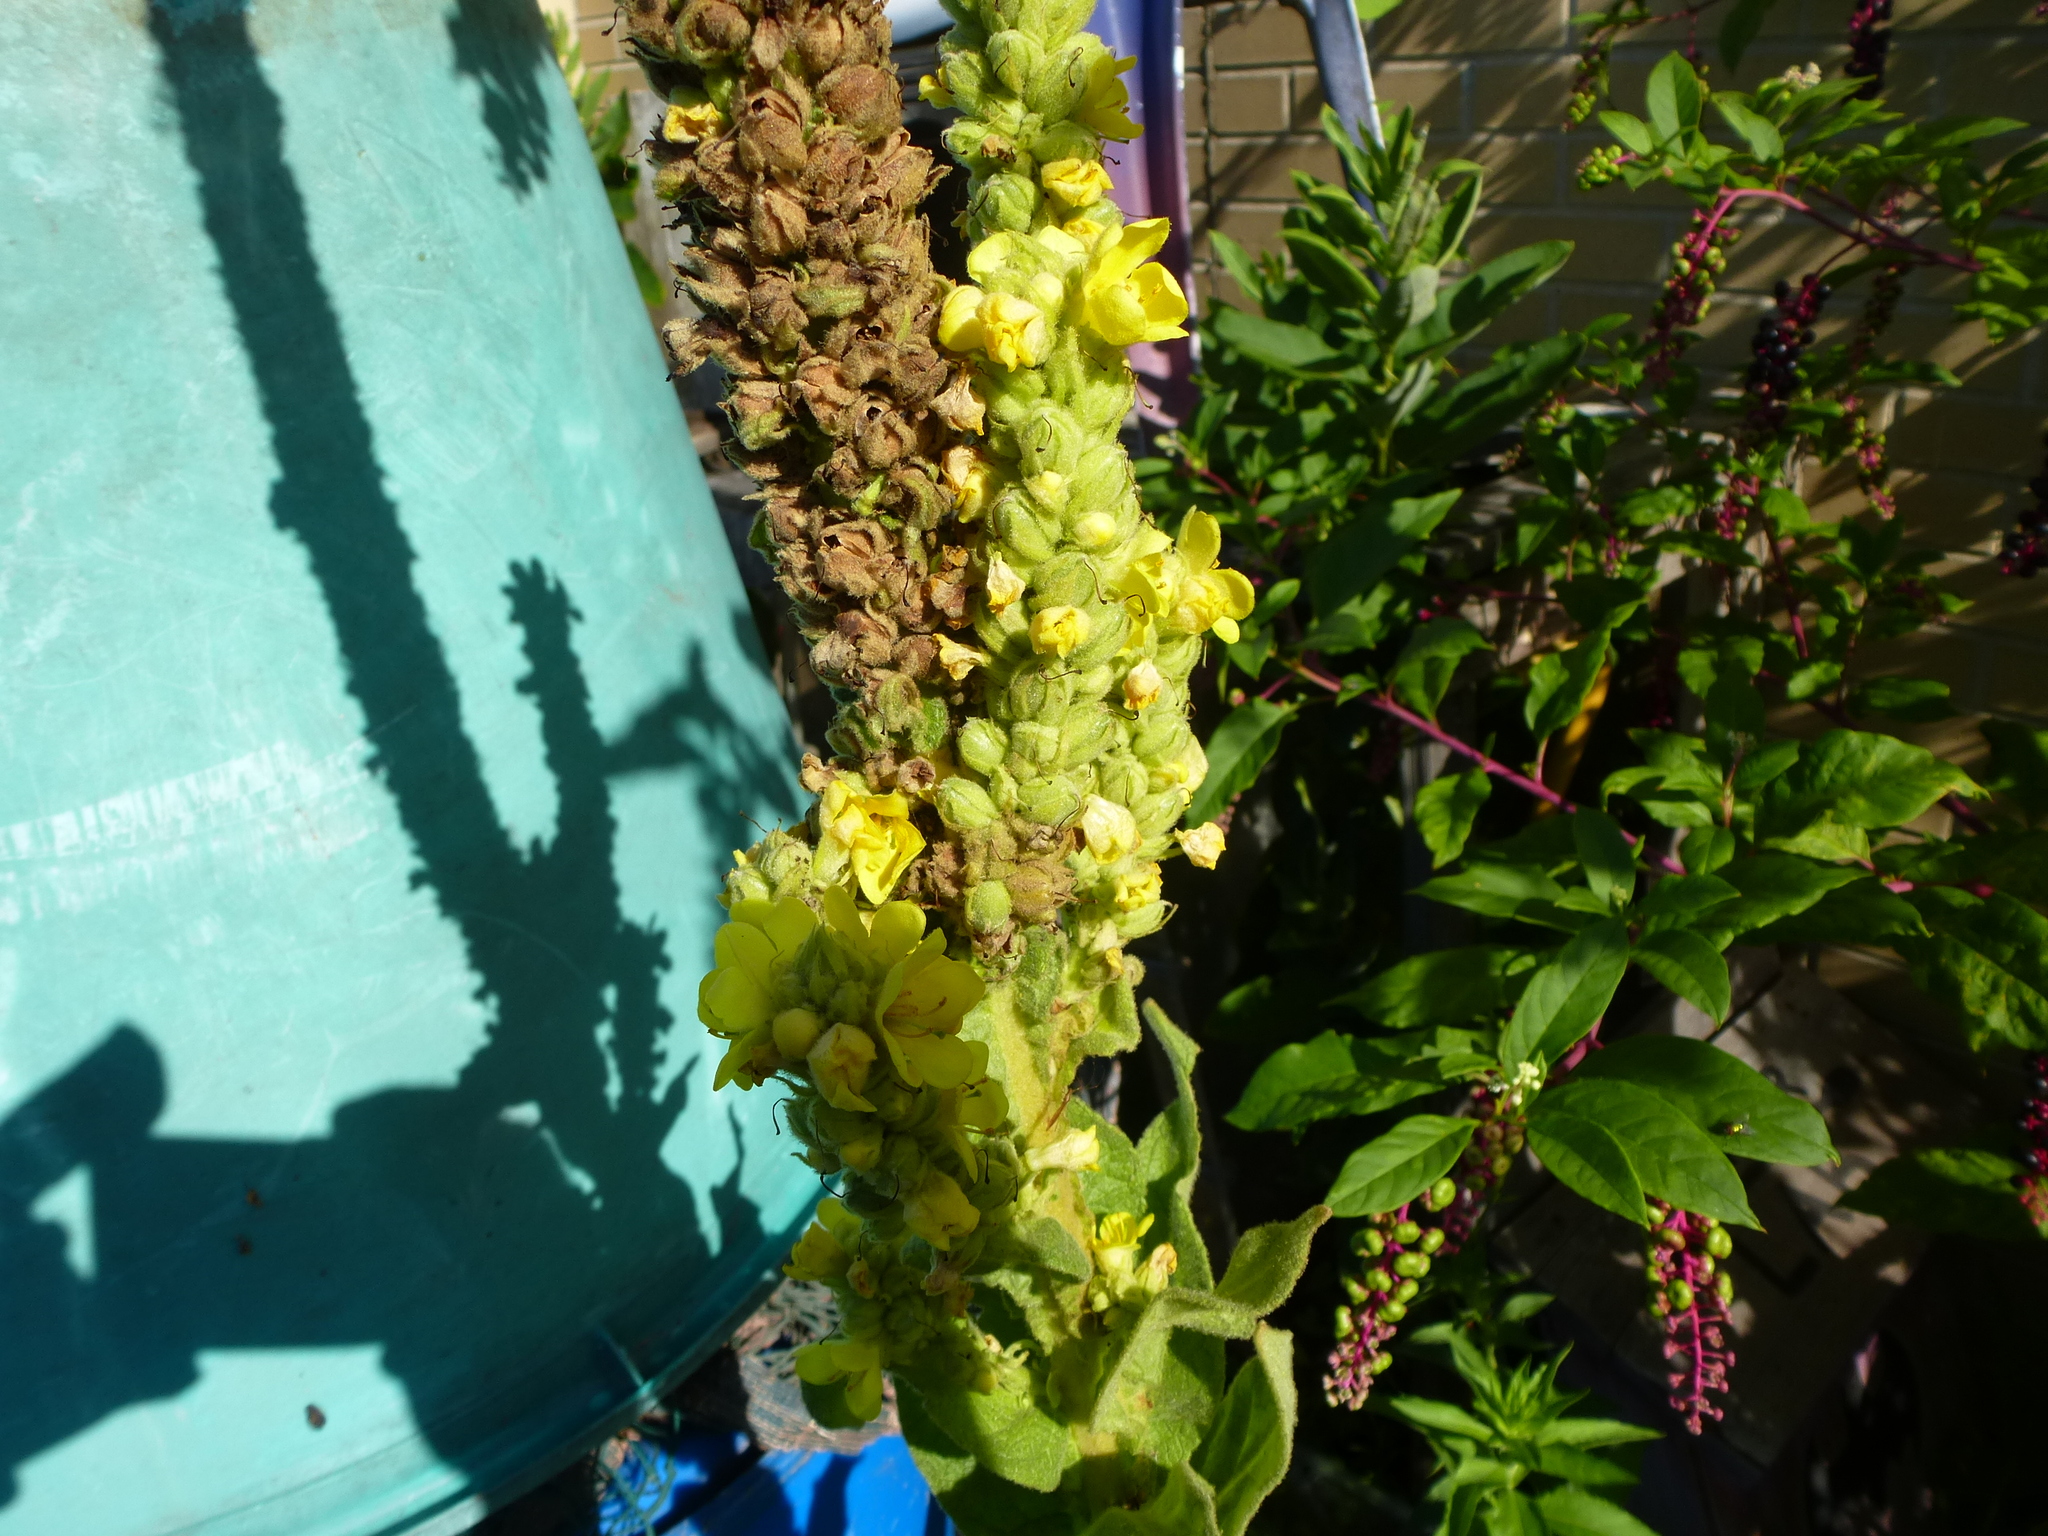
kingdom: Plantae
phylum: Tracheophyta
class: Magnoliopsida
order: Lamiales
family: Scrophulariaceae
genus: Verbascum
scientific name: Verbascum thapsus
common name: Common mullein
